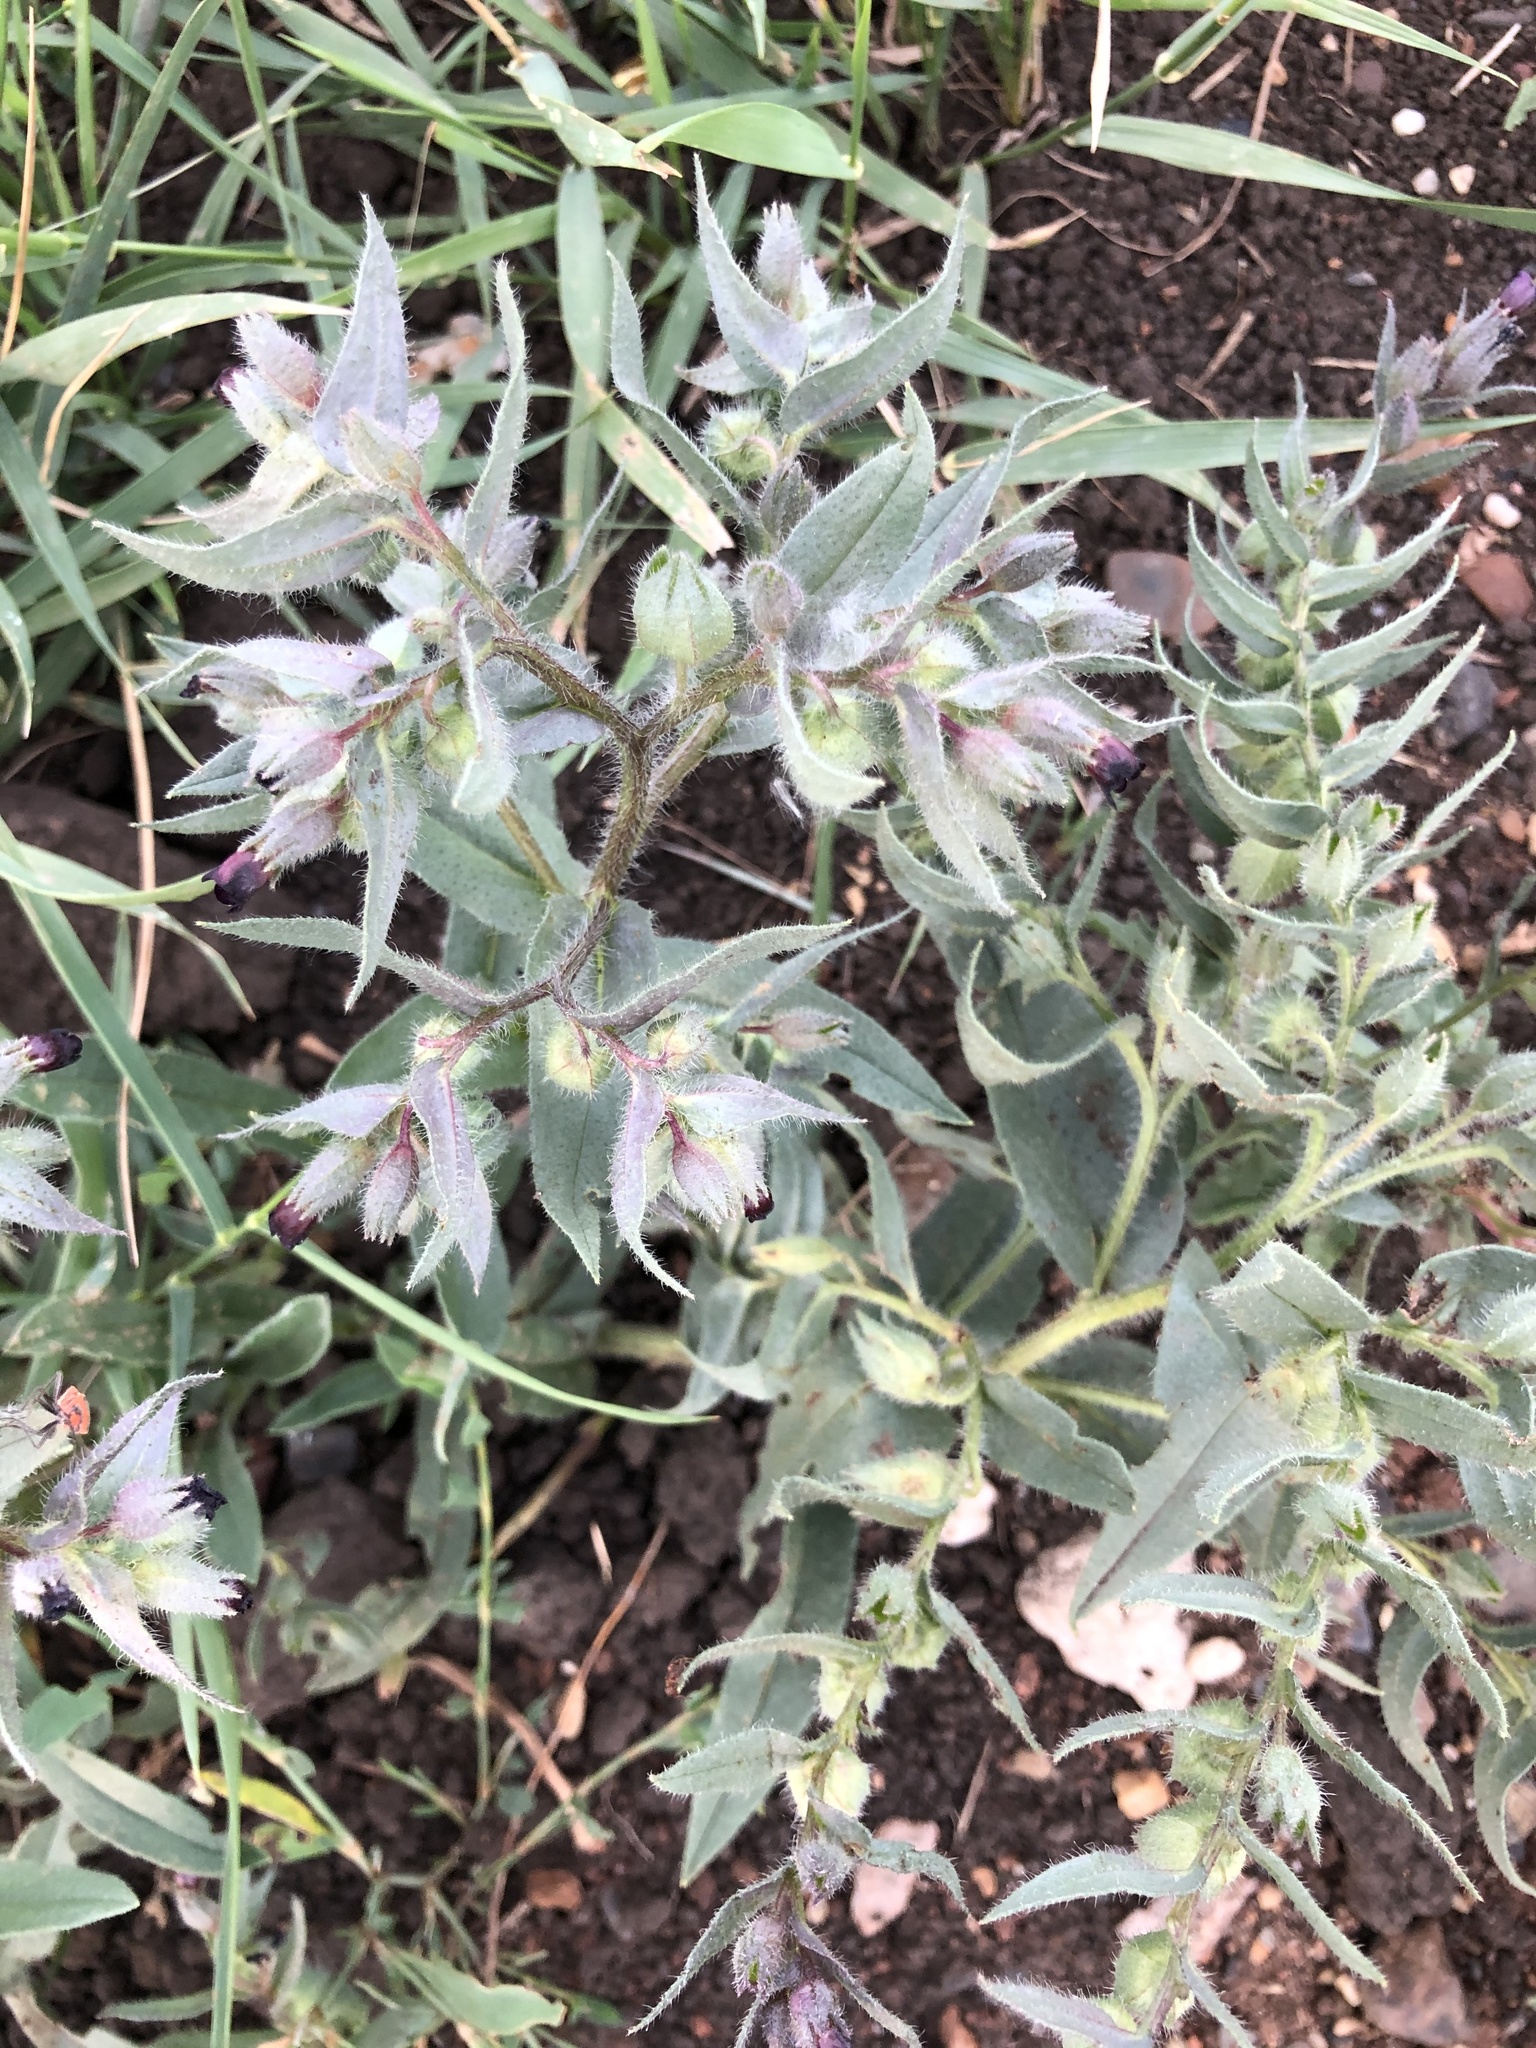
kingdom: Plantae
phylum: Tracheophyta
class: Magnoliopsida
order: Boraginales
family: Boraginaceae
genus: Nonea
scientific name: Nonea pulla
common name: Brown nonea
